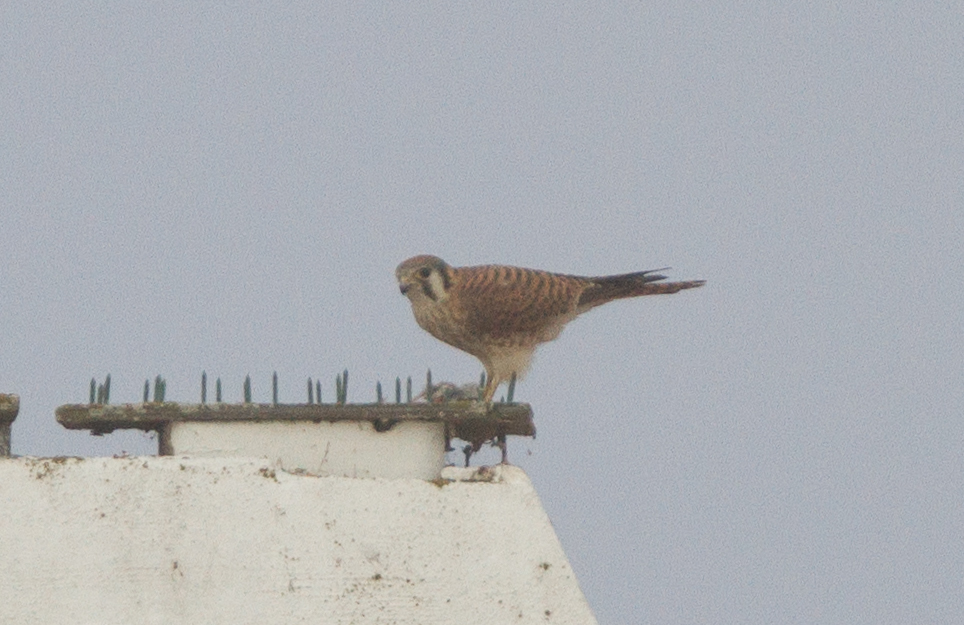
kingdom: Animalia
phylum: Chordata
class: Aves
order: Falconiformes
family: Falconidae
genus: Falco
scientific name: Falco sparverius
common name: American kestrel
